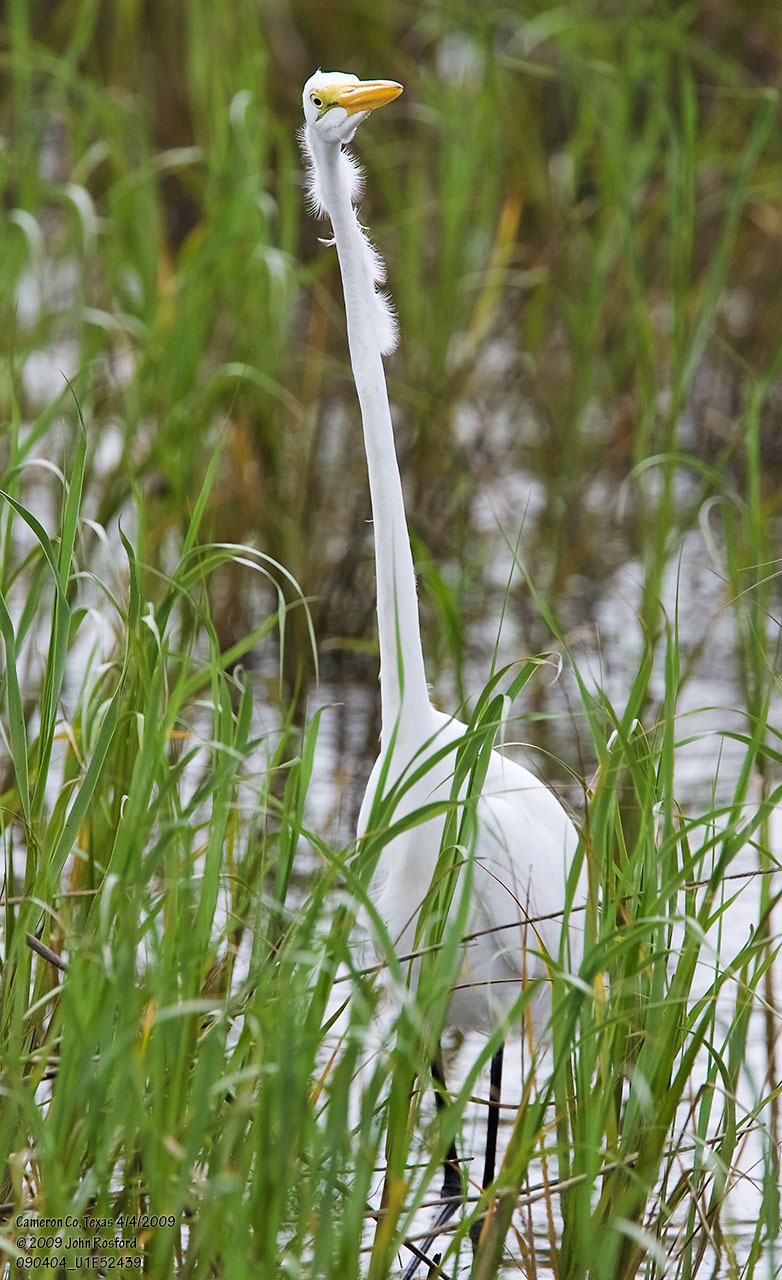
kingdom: Animalia
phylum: Chordata
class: Aves
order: Pelecaniformes
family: Ardeidae
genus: Ardea
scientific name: Ardea alba
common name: Great egret
